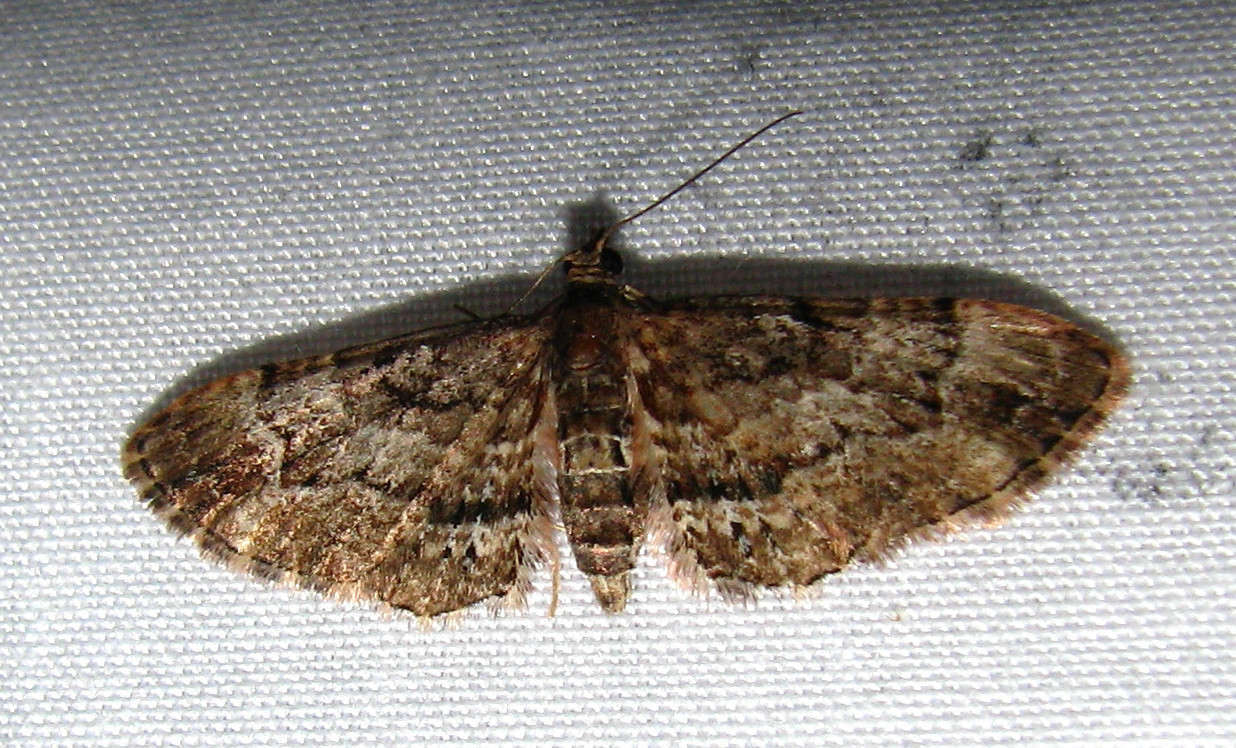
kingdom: Animalia
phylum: Arthropoda
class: Insecta
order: Lepidoptera
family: Geometridae
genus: Chloroclystis
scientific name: Chloroclystis approximata
